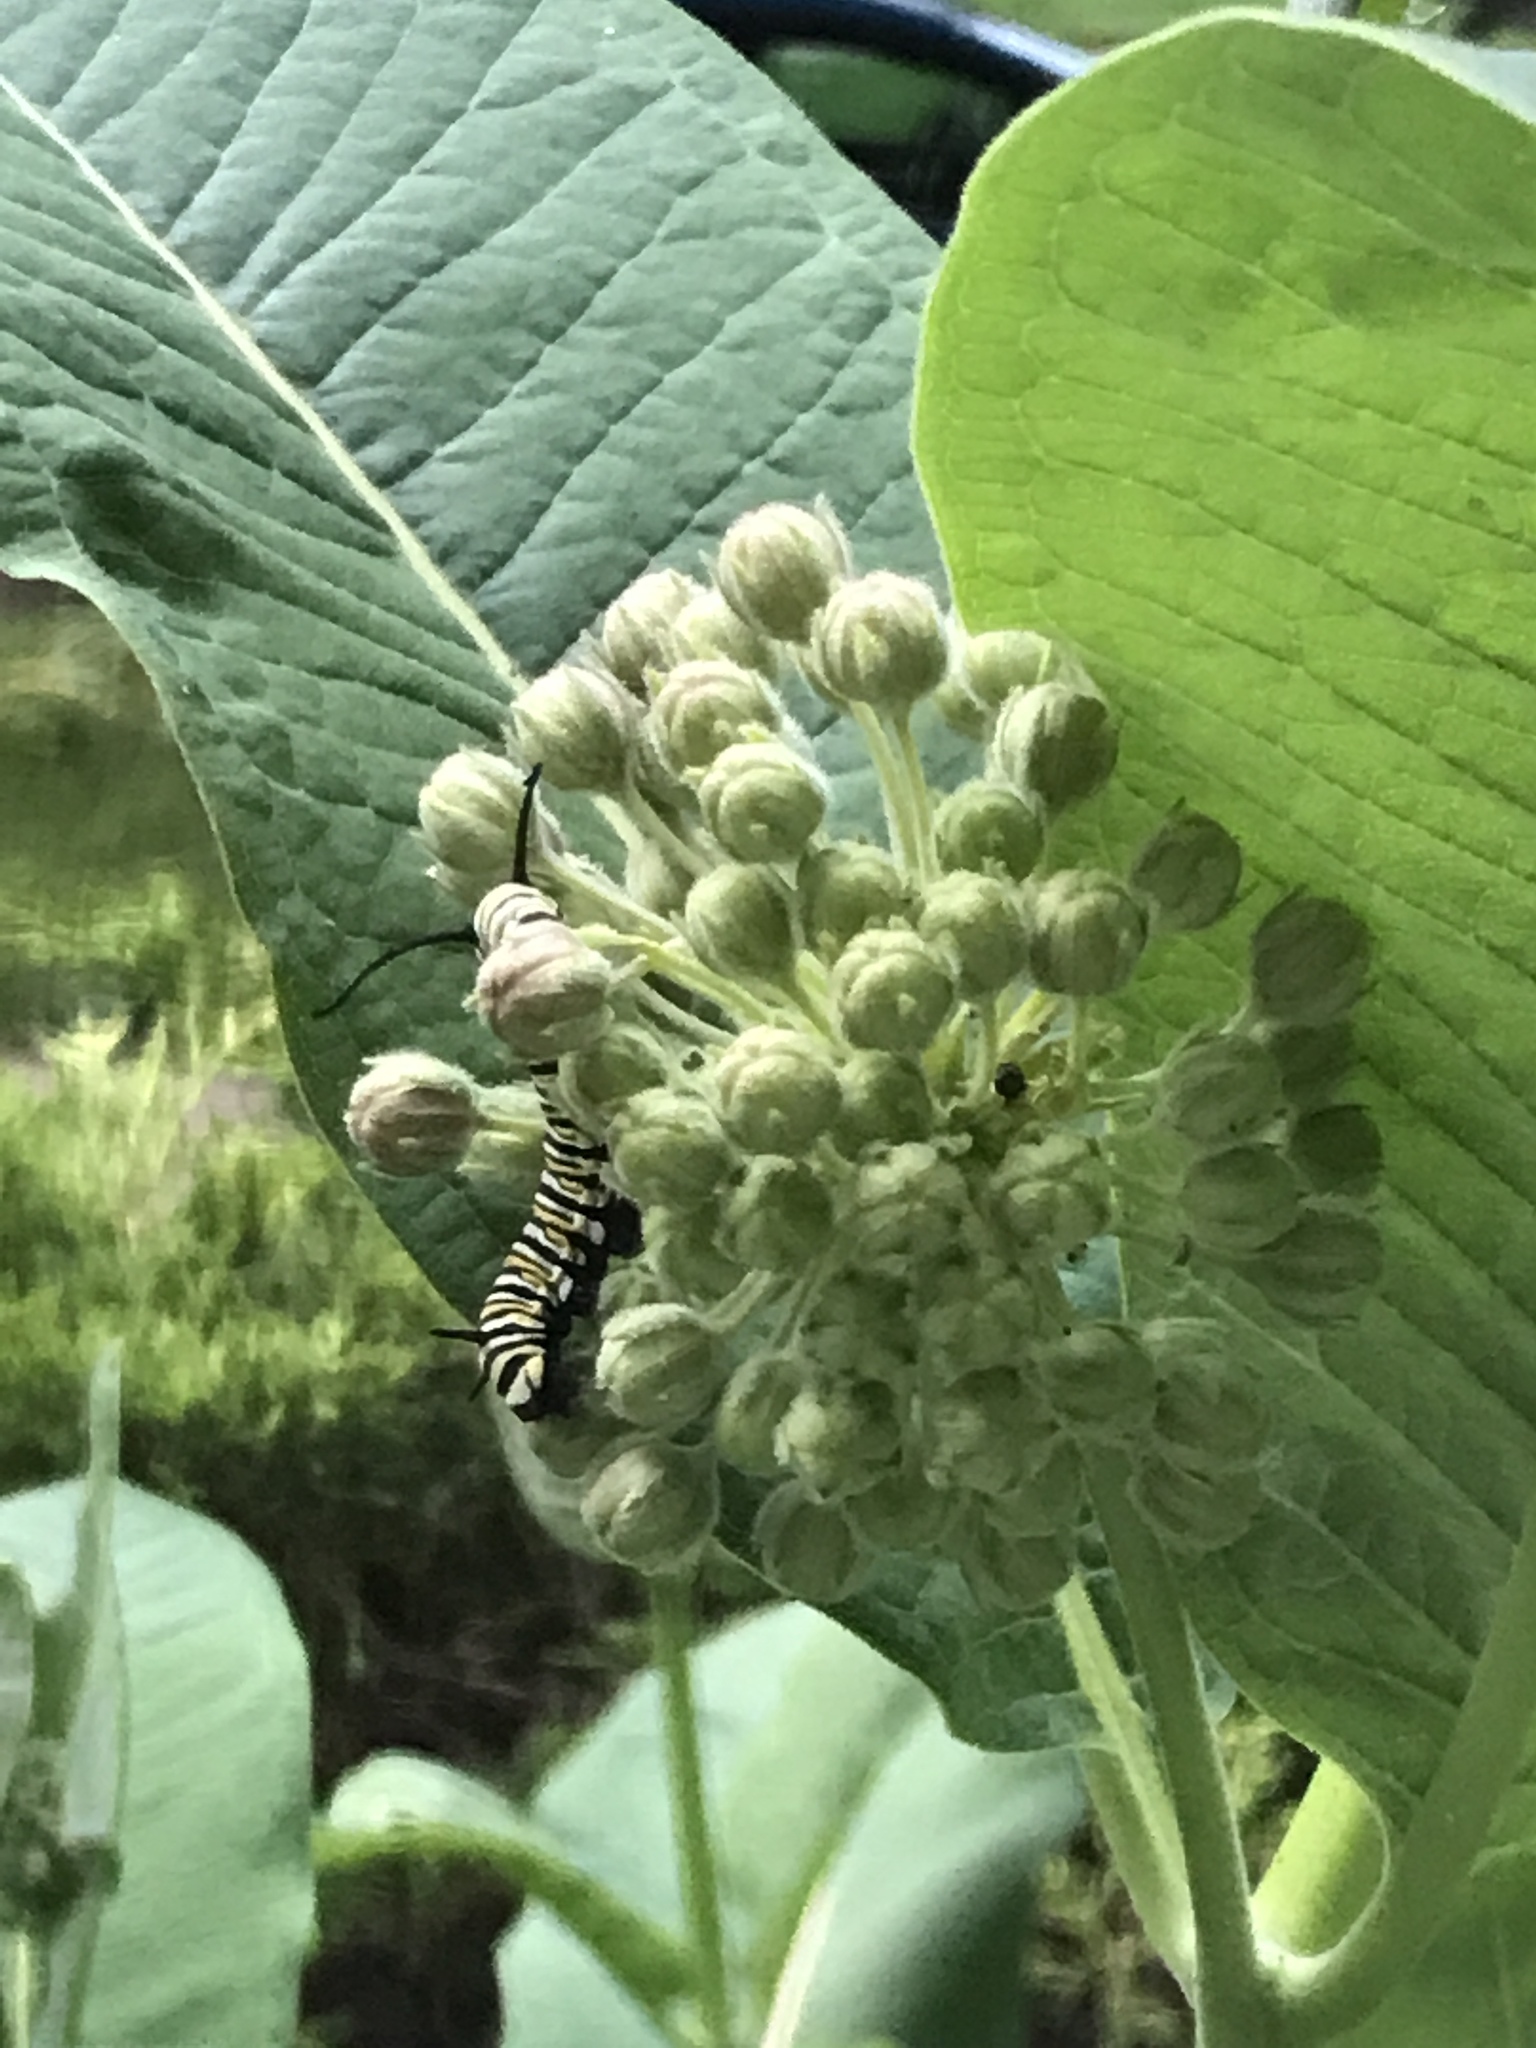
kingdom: Plantae
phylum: Tracheophyta
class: Magnoliopsida
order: Gentianales
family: Apocynaceae
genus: Asclepias
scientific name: Asclepias syriaca
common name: Common milkweed
